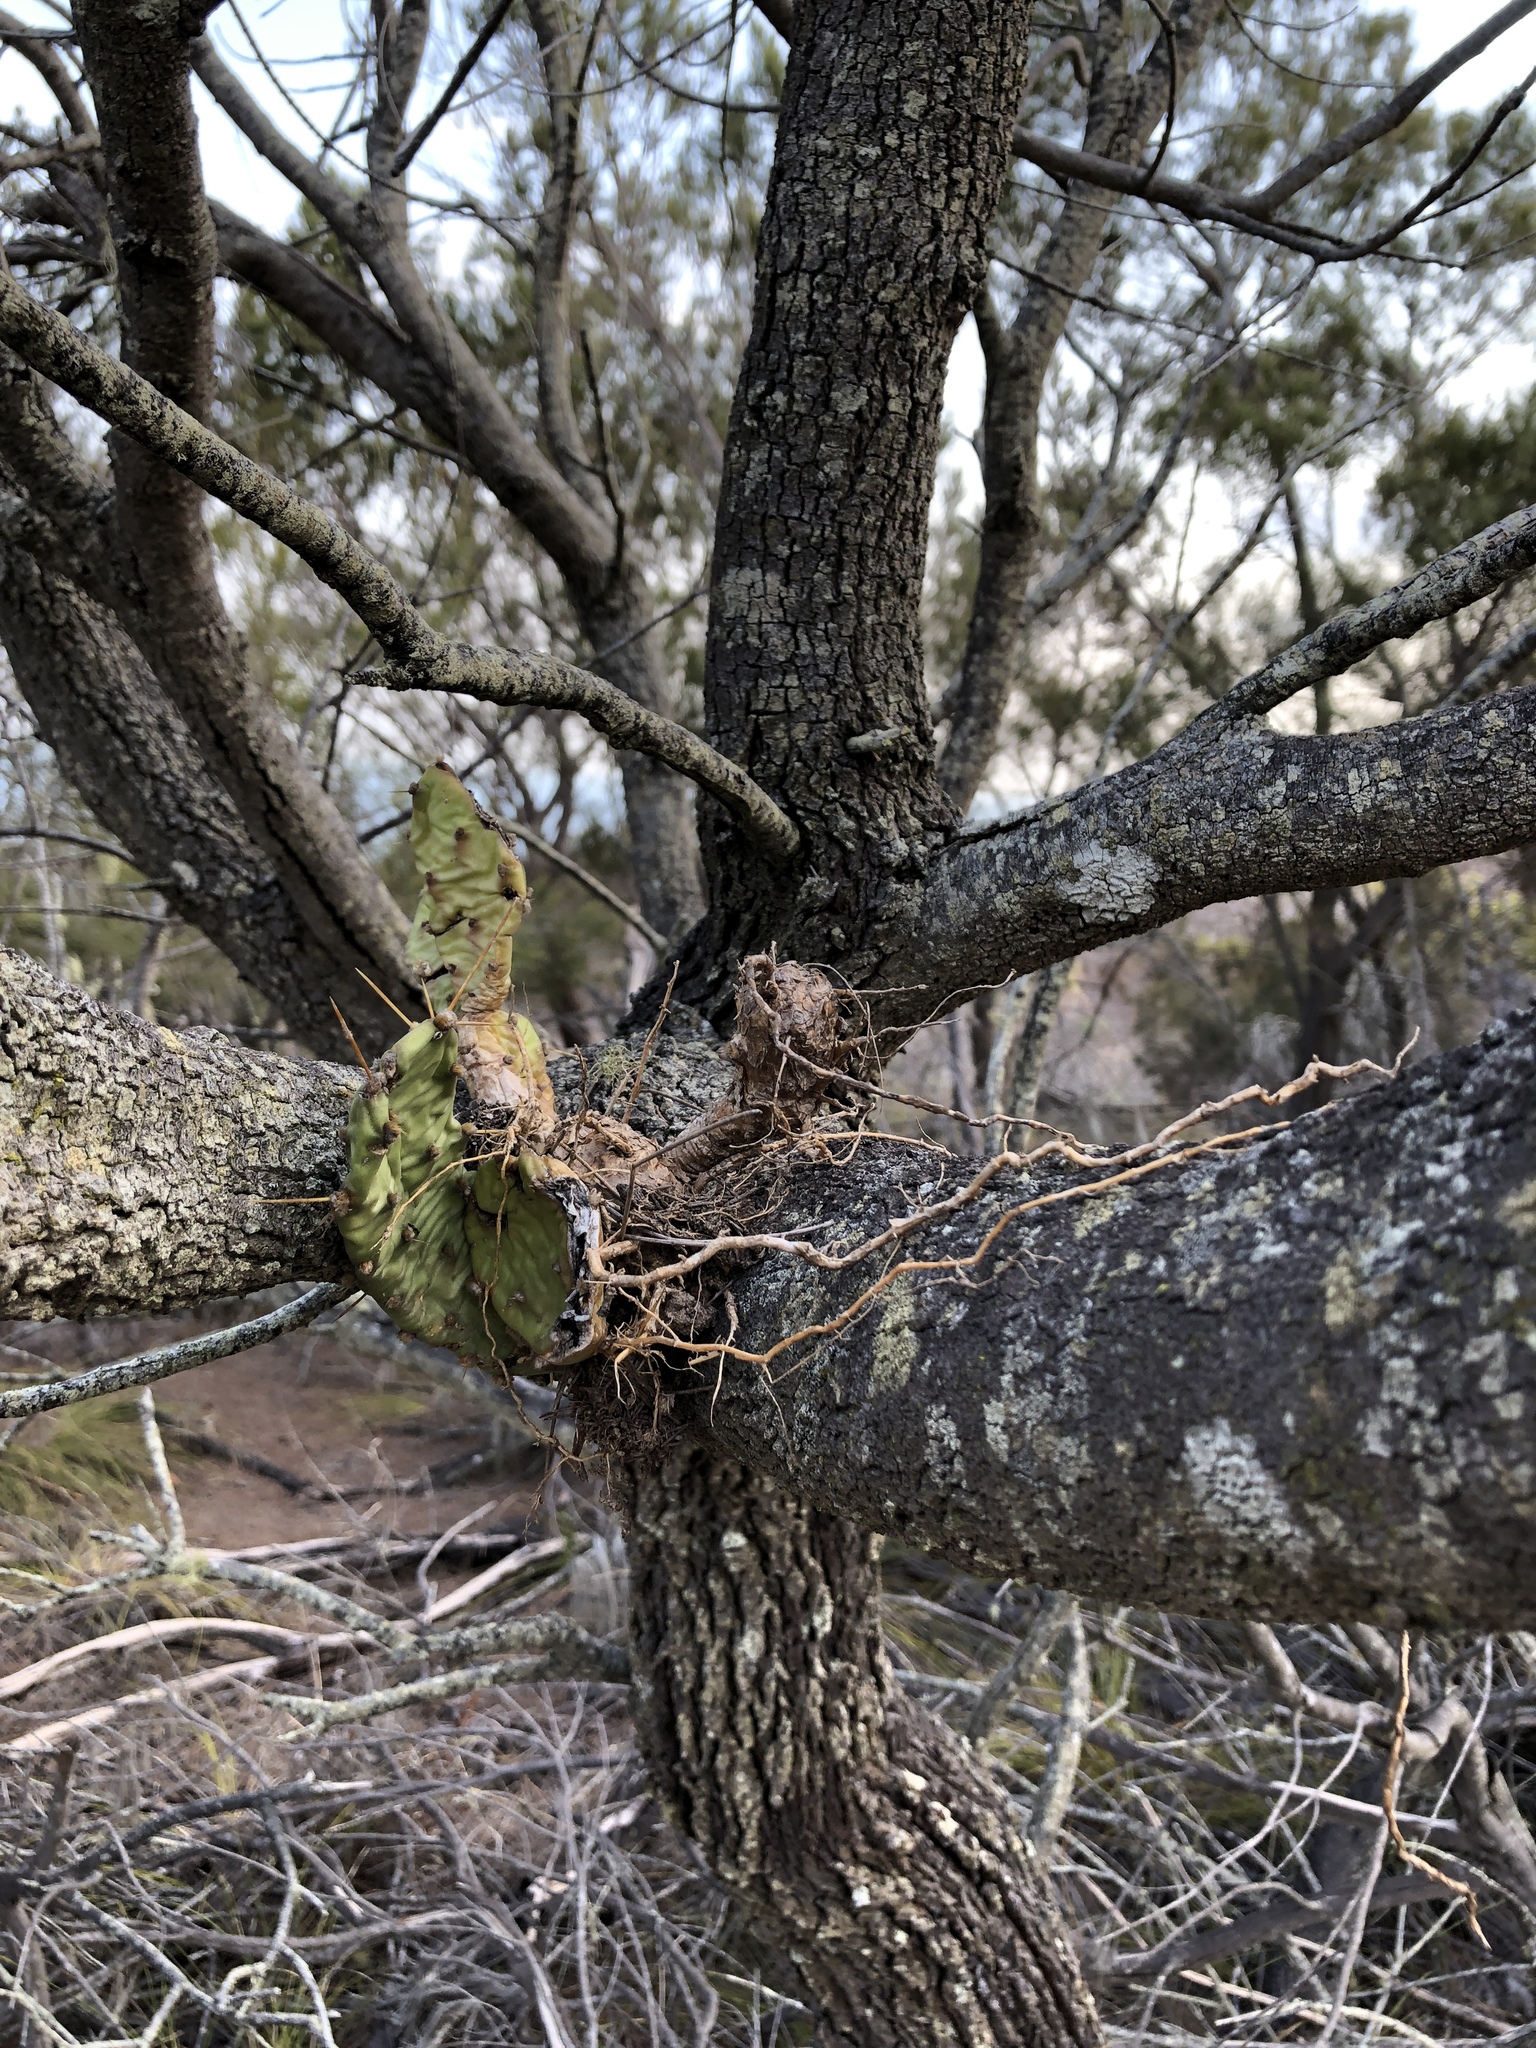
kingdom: Plantae
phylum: Tracheophyta
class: Magnoliopsida
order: Caryophyllales
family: Cactaceae
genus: Opuntia
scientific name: Opuntia stricta
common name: Erect pricklypear
